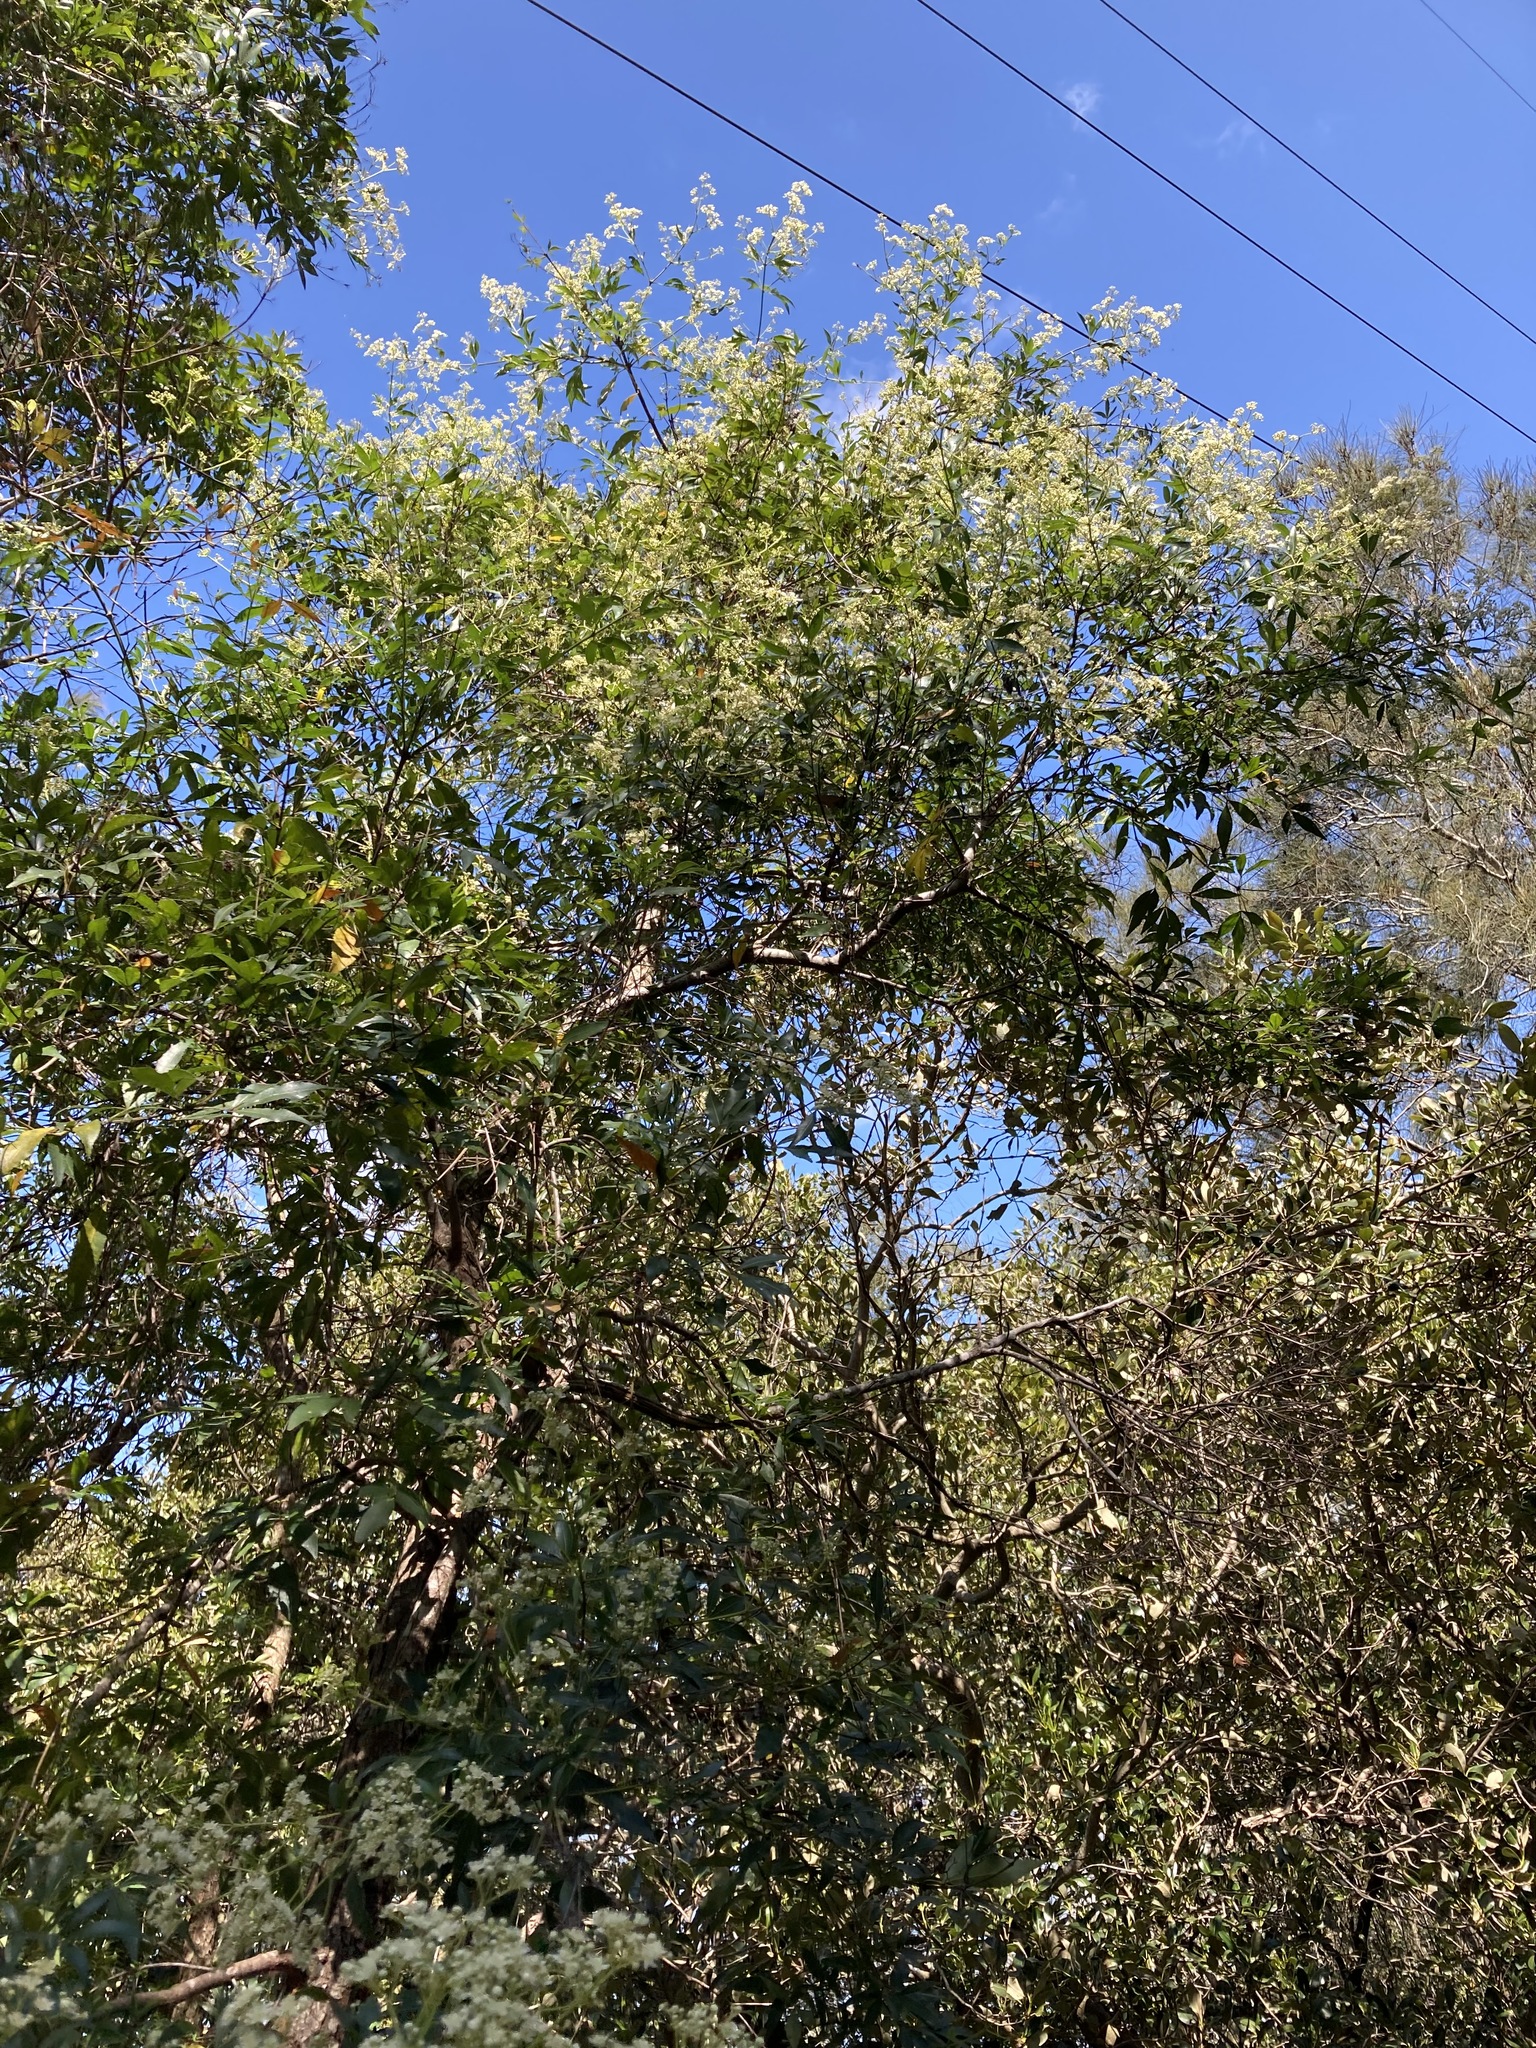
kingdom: Plantae
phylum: Tracheophyta
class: Magnoliopsida
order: Oxalidales
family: Cunoniaceae
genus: Ceratopetalum
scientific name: Ceratopetalum gummiferum
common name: Christmasbush
